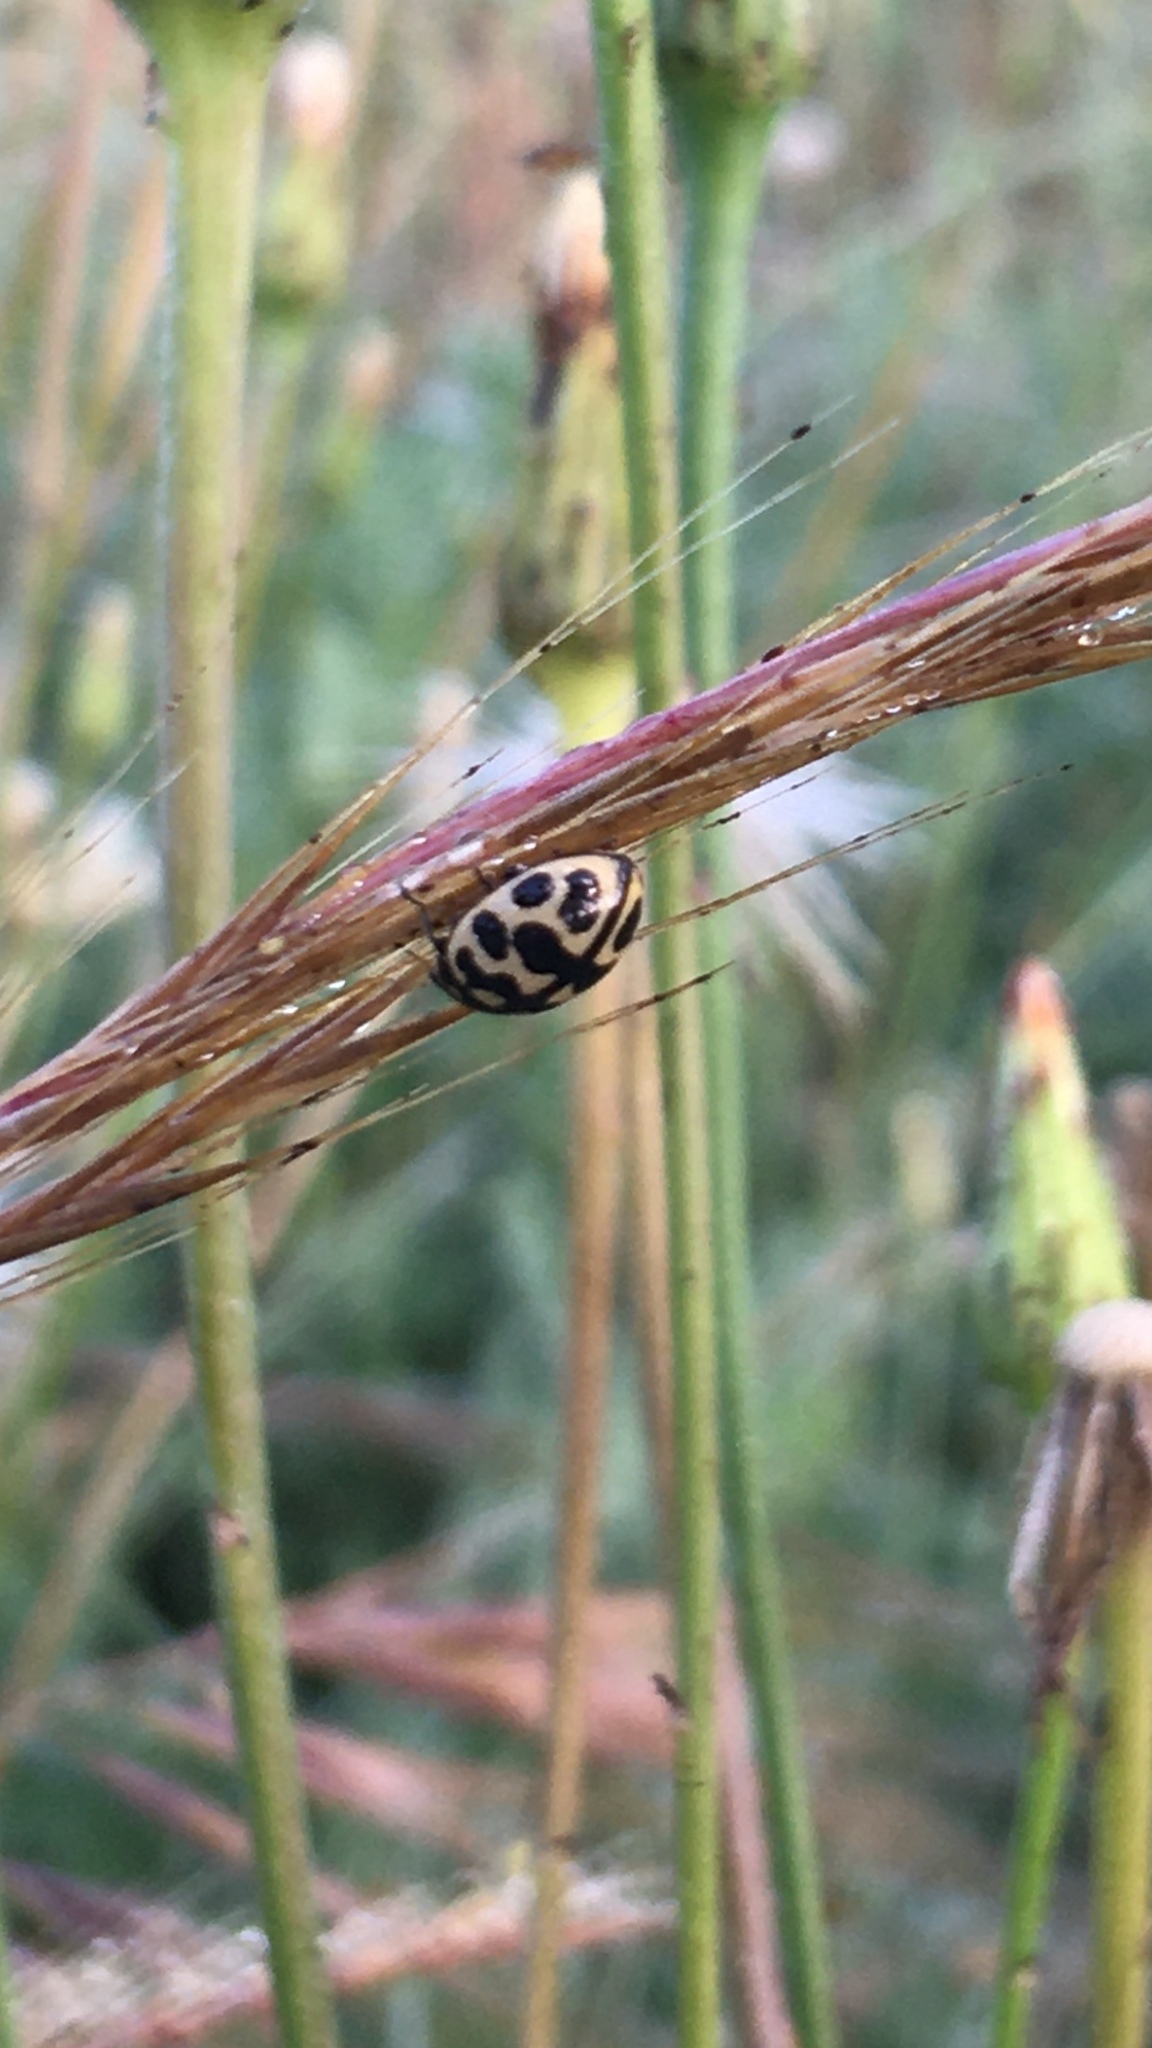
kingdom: Animalia
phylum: Arthropoda
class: Insecta
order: Coleoptera
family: Coccinellidae
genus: Lioadalia
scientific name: Lioadalia flavomaculata
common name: Ladybird beetle
